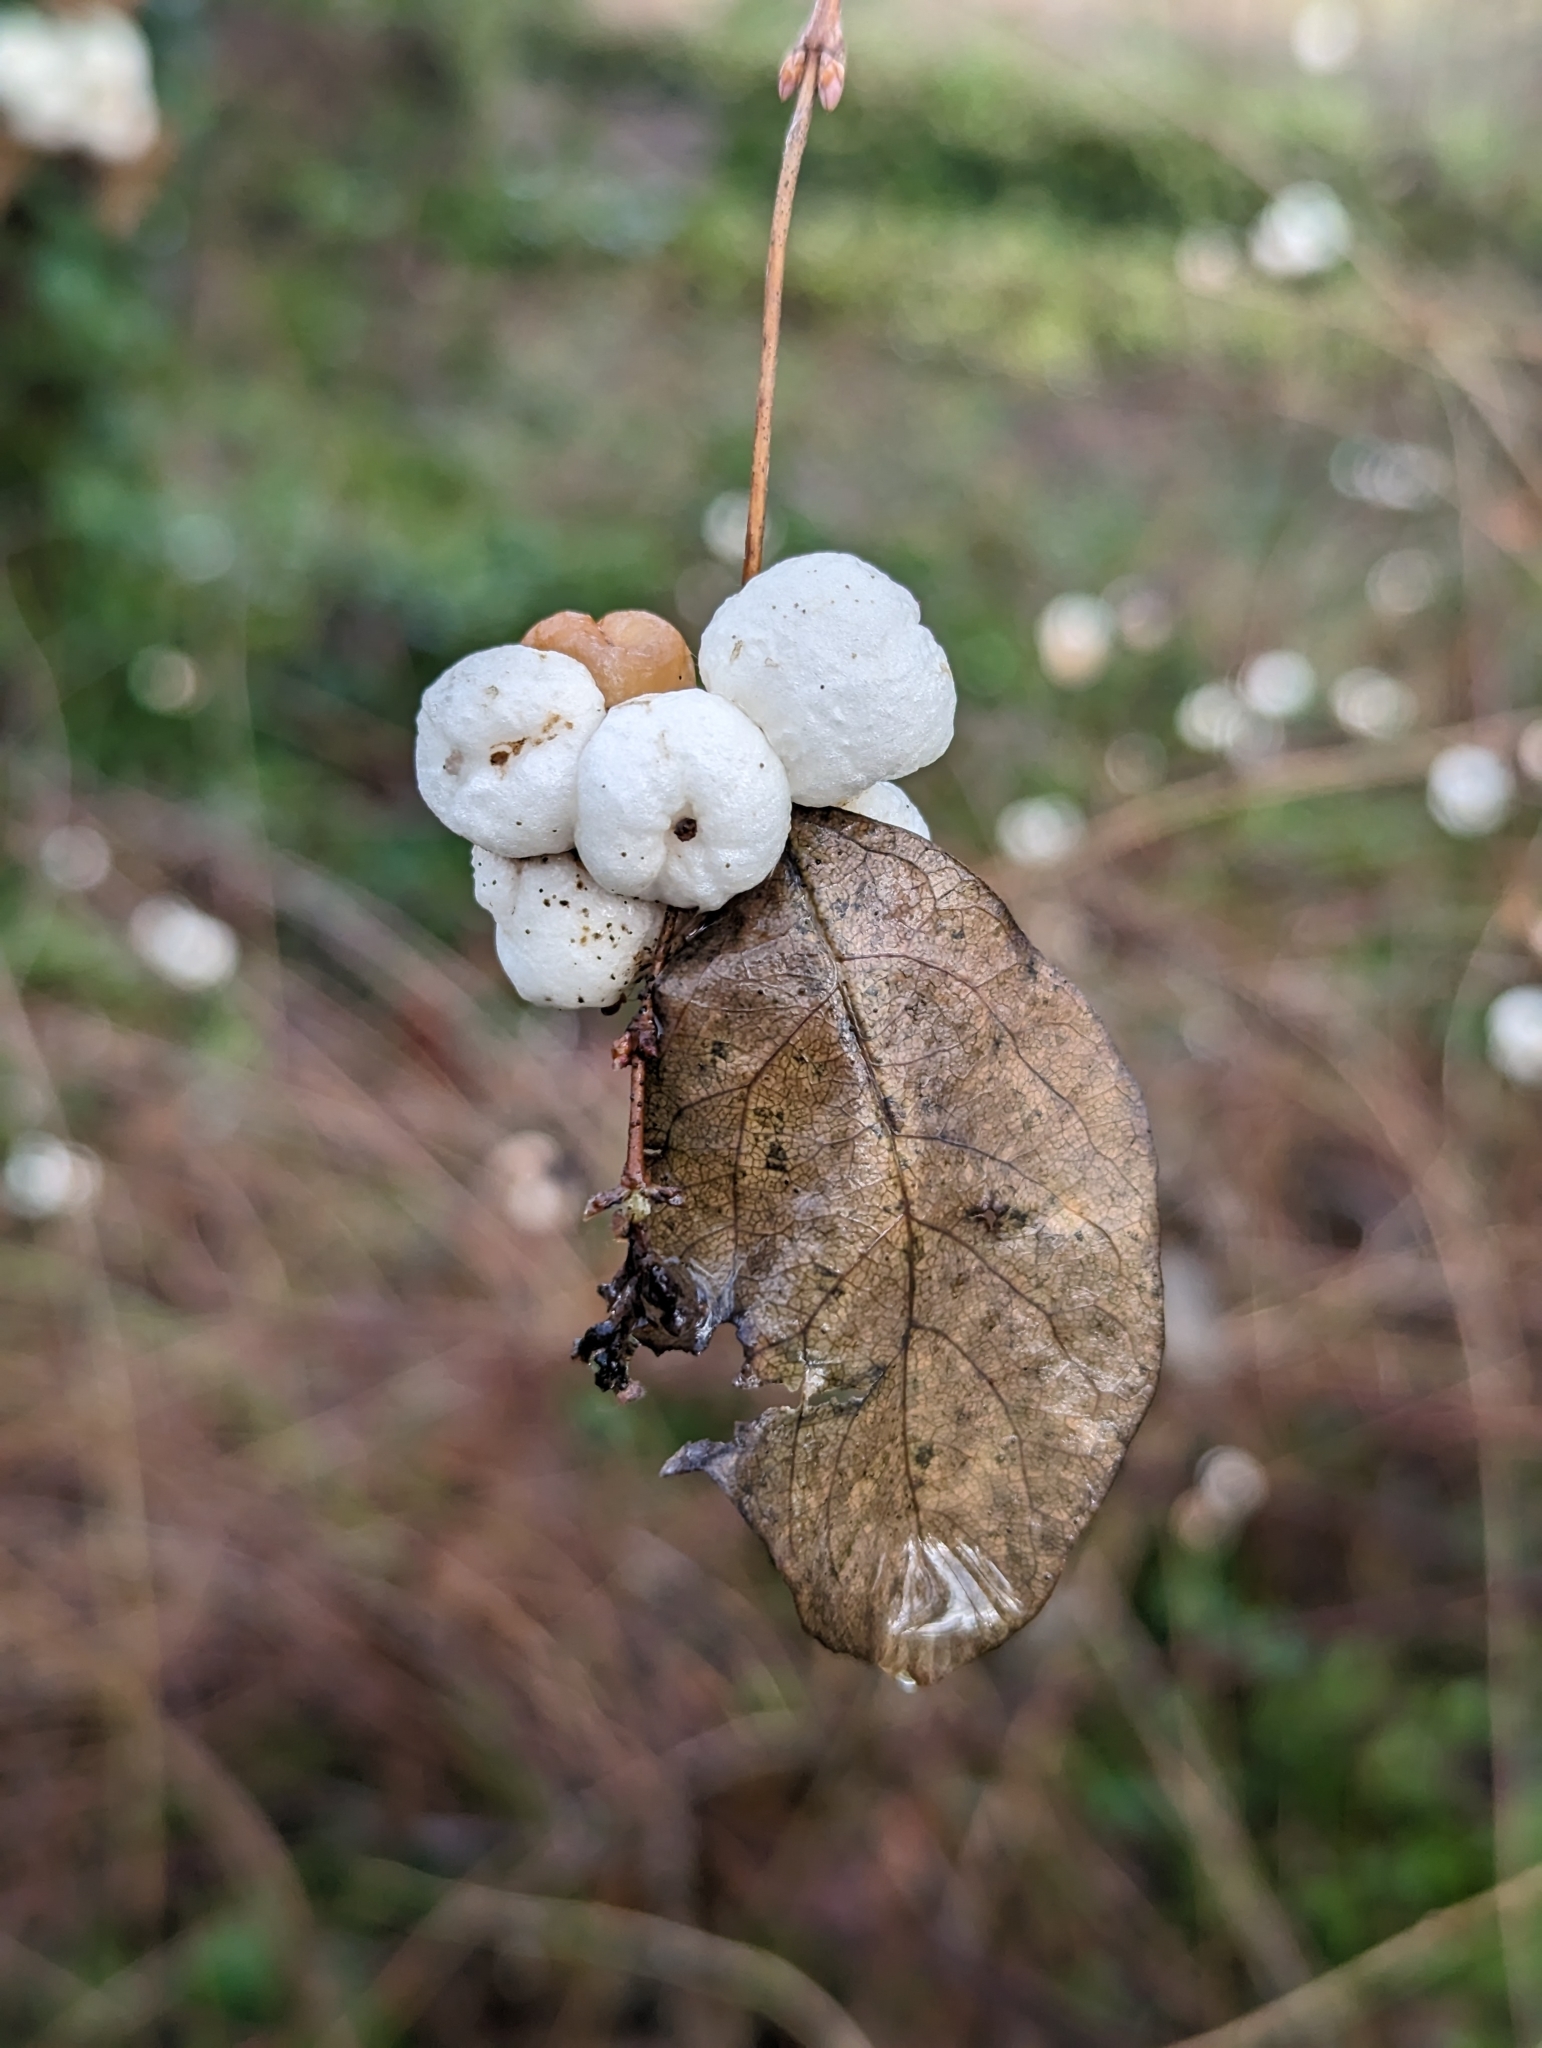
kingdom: Plantae
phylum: Tracheophyta
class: Magnoliopsida
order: Dipsacales
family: Caprifoliaceae
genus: Symphoricarpos
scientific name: Symphoricarpos albus
